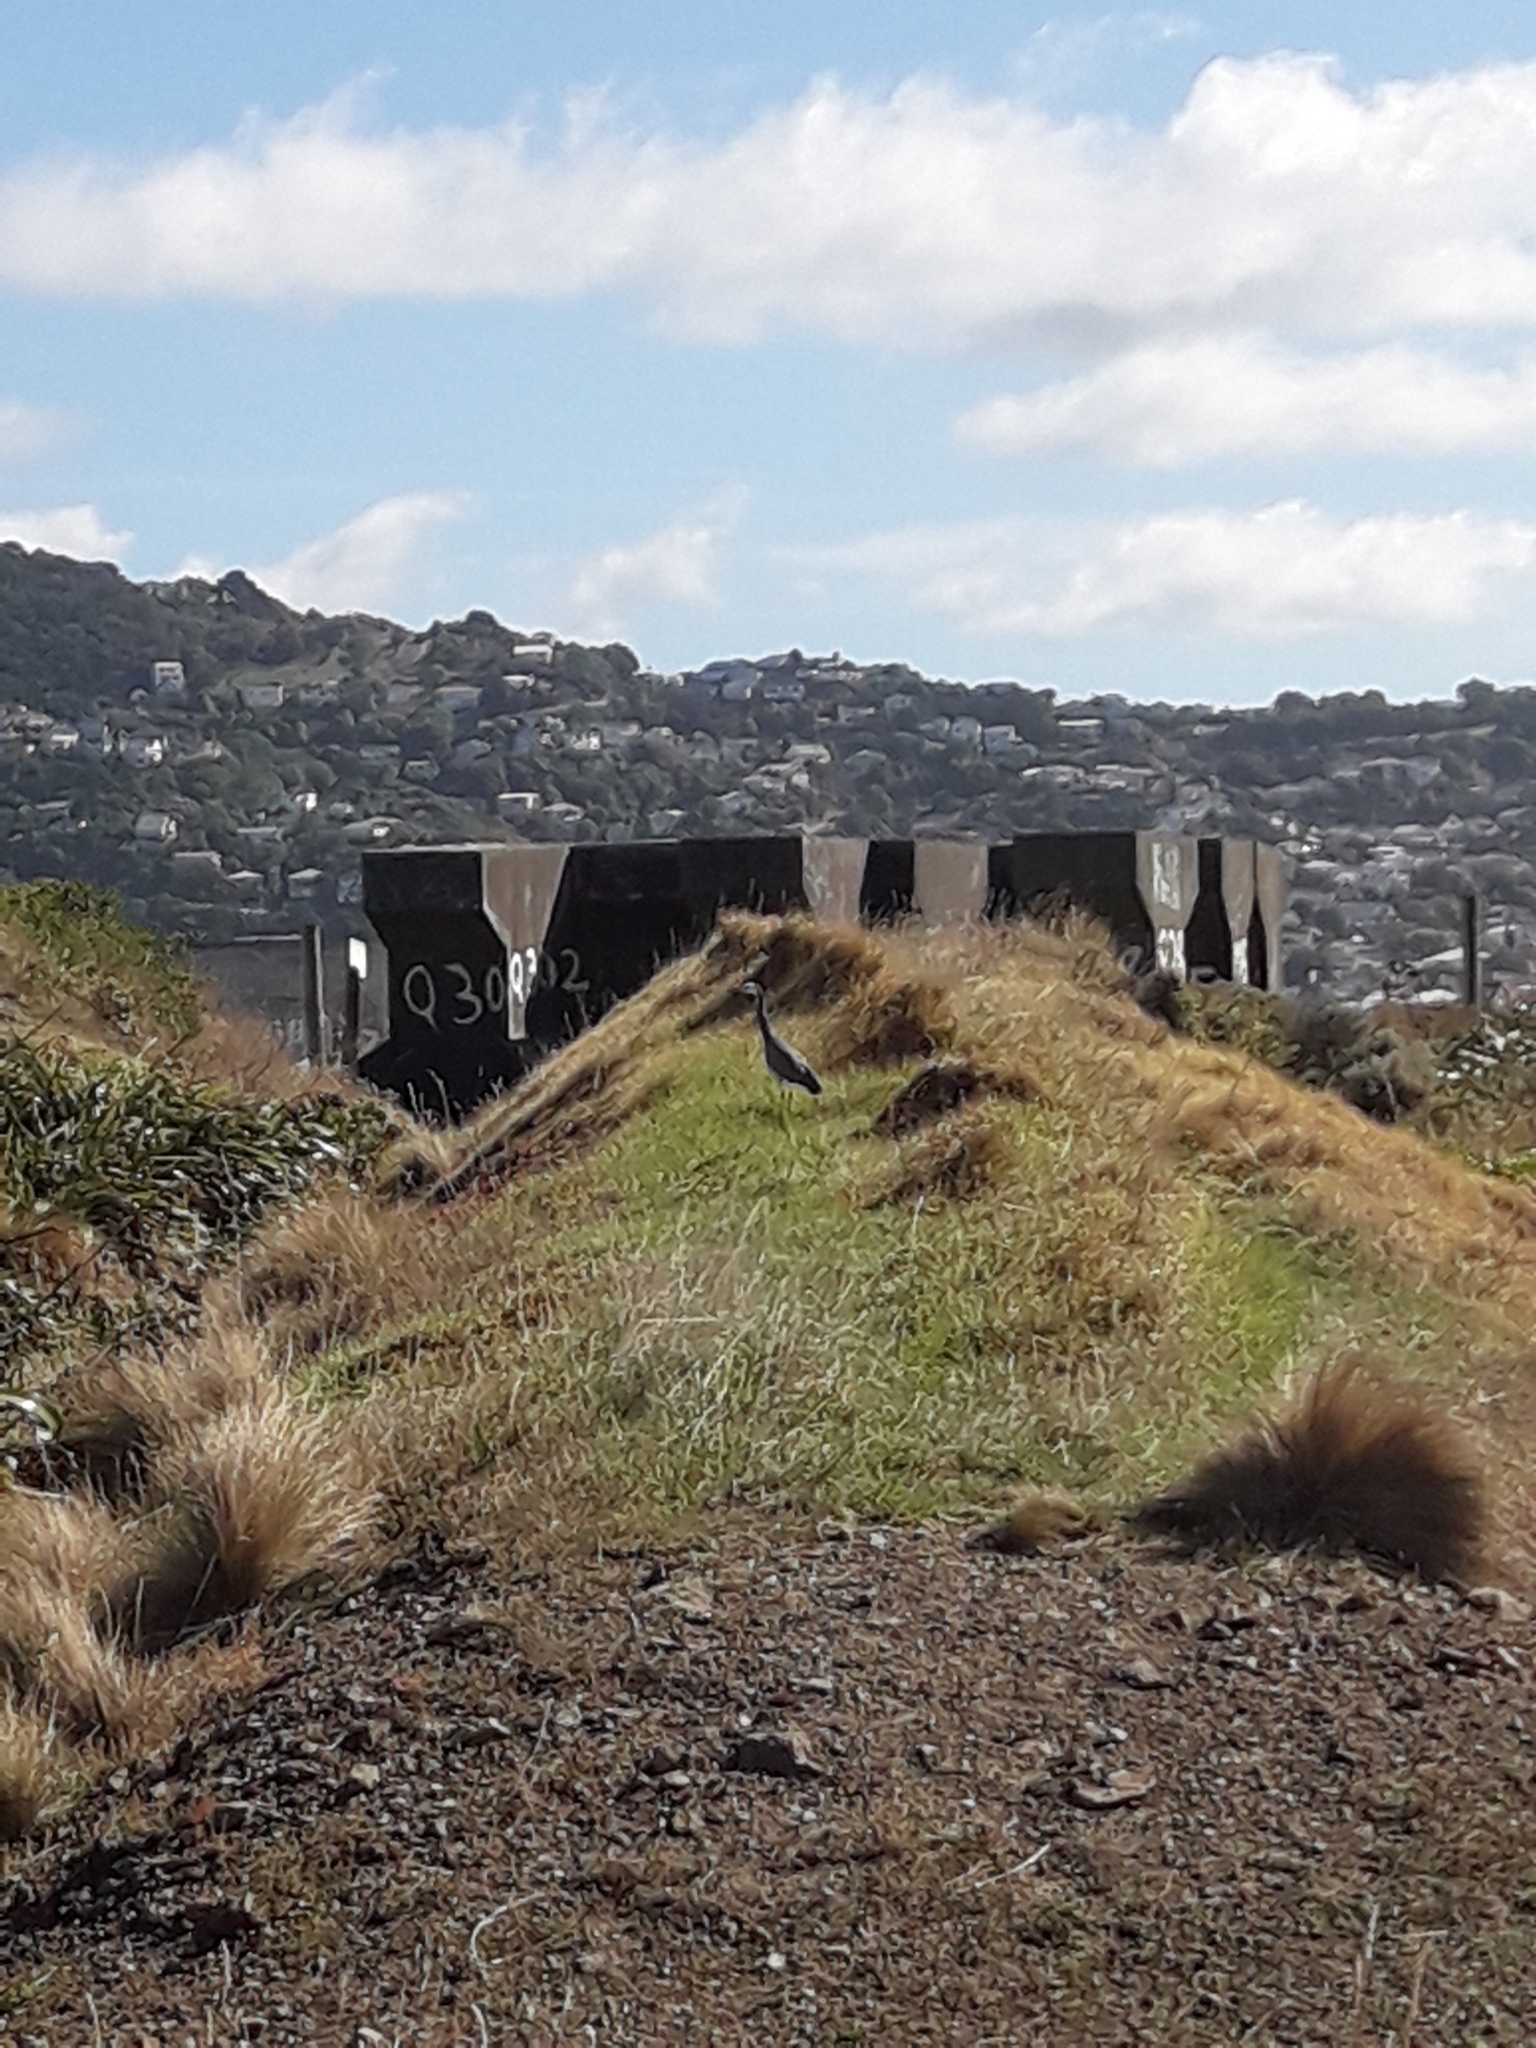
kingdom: Animalia
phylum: Chordata
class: Aves
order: Pelecaniformes
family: Ardeidae
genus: Egretta
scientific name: Egretta novaehollandiae
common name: White-faced heron
